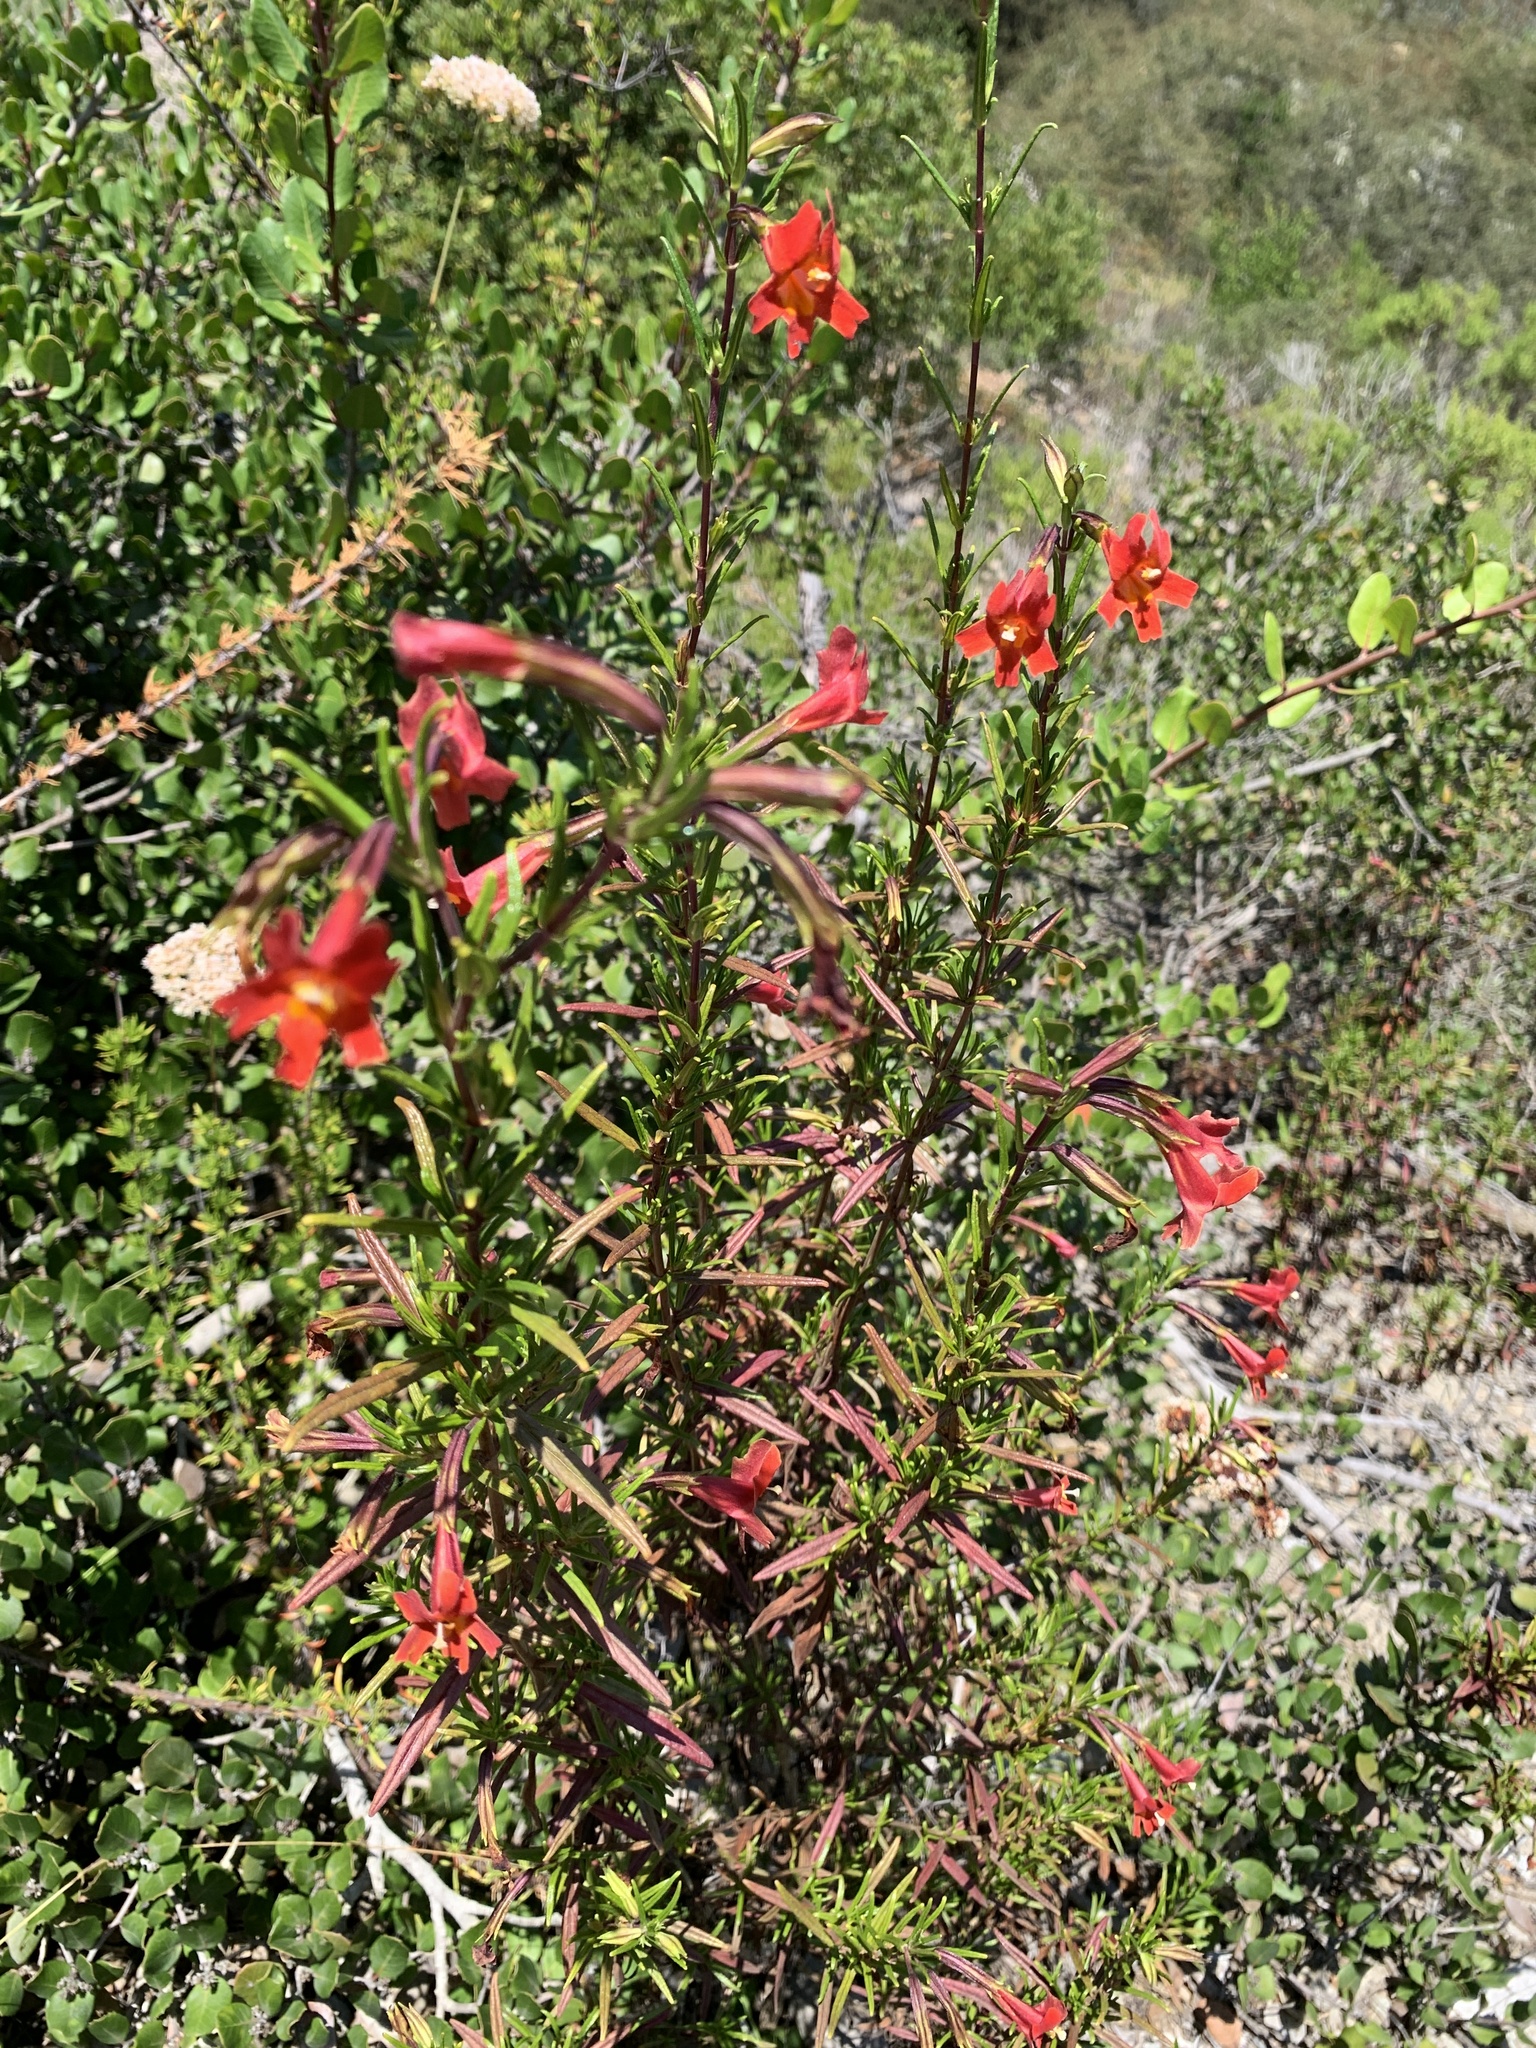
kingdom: Plantae
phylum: Tracheophyta
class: Magnoliopsida
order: Lamiales
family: Phrymaceae
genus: Diplacus
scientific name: Diplacus puniceus
